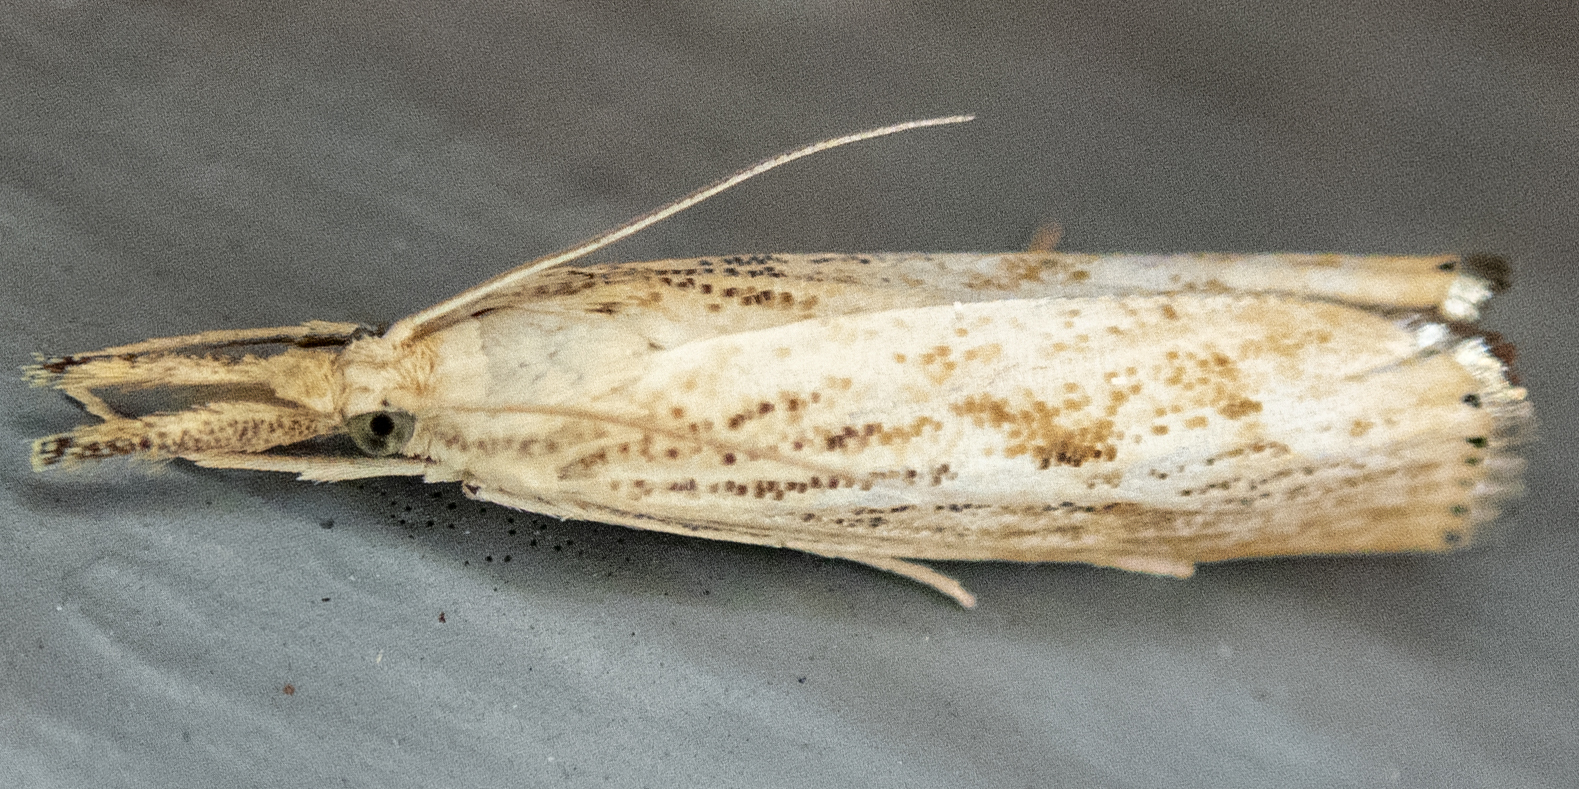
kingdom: Animalia
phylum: Arthropoda
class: Insecta
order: Lepidoptera
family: Crambidae
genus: Agriphila
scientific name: Agriphila ruricolellus
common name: Lesser vagabond sod webworm
